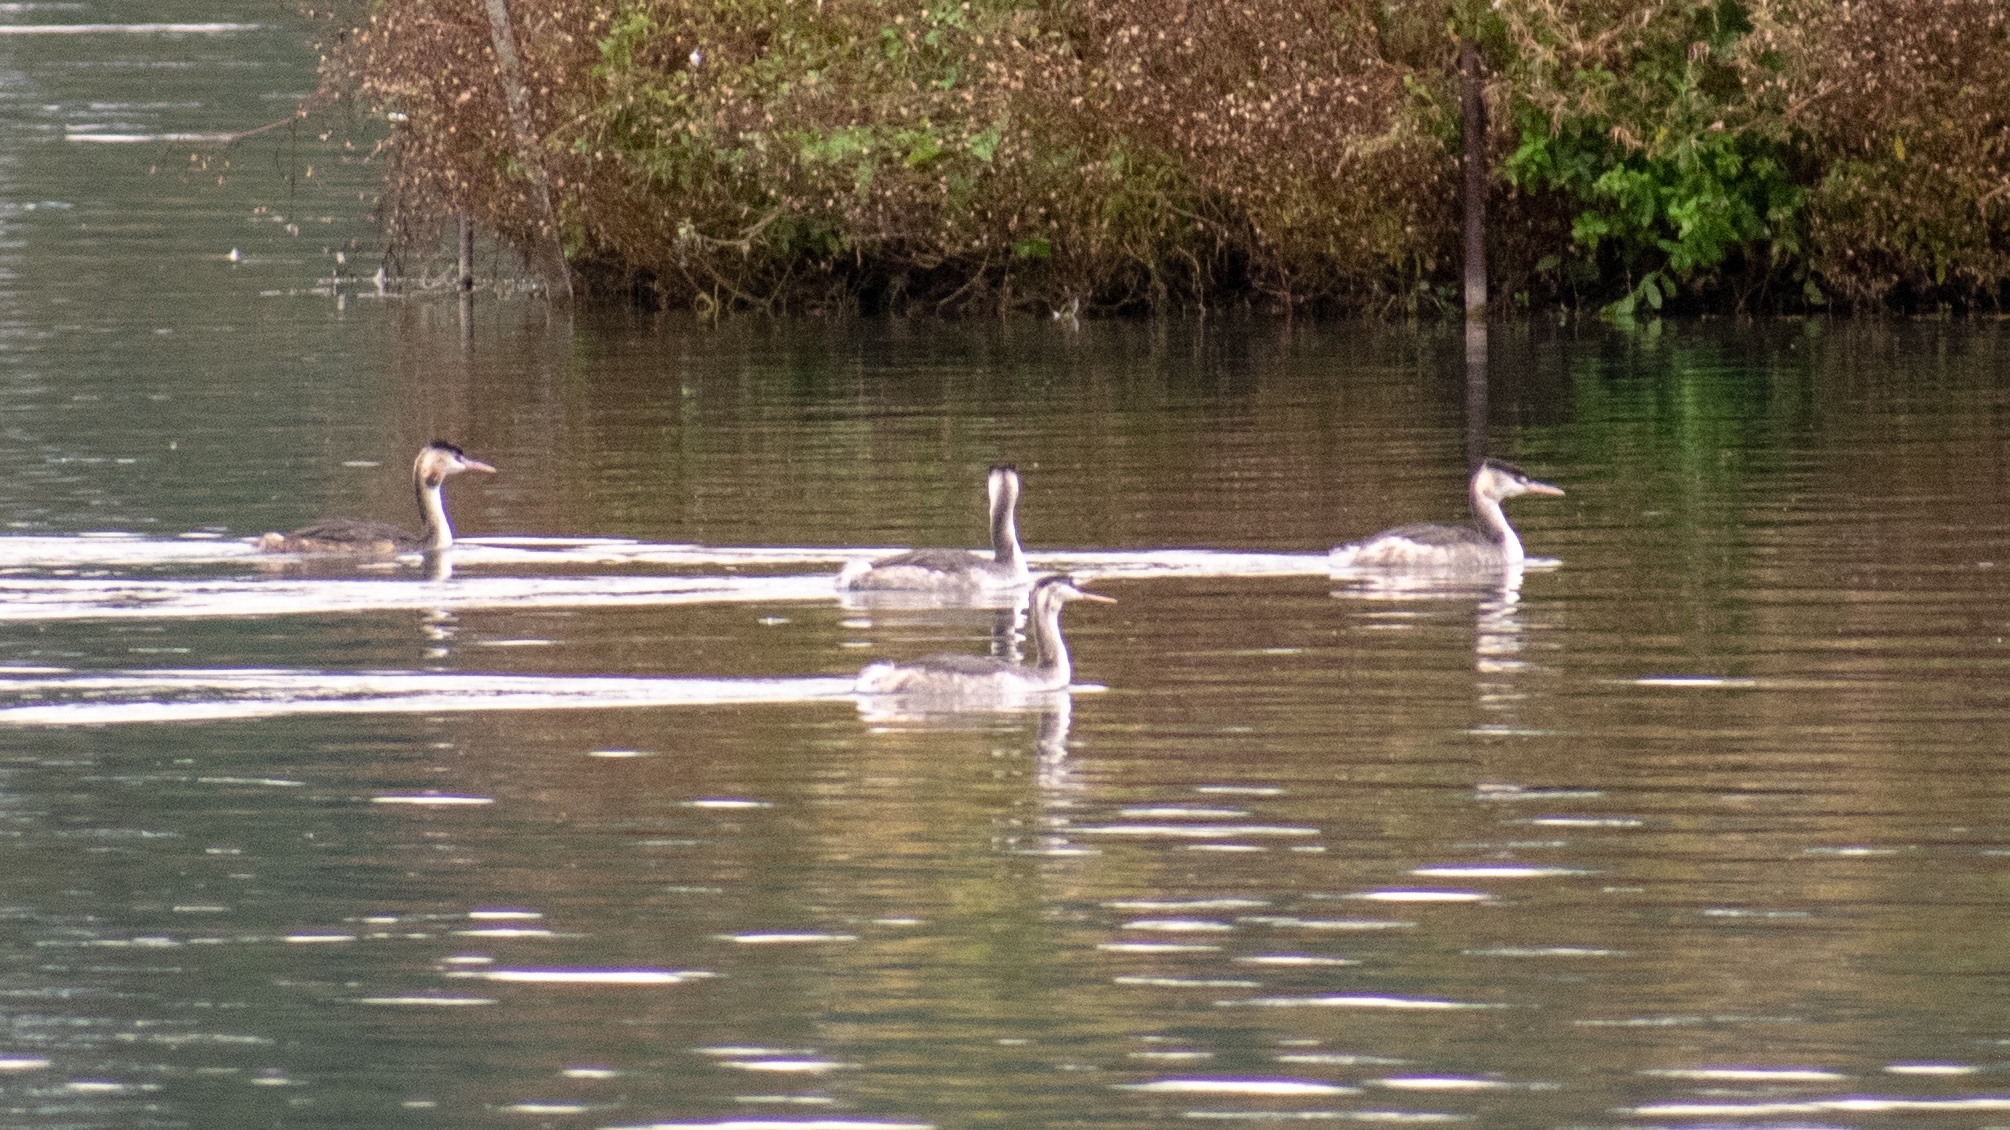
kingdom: Animalia
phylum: Chordata
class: Aves
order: Podicipediformes
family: Podicipedidae
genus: Podiceps
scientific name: Podiceps cristatus
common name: Great crested grebe
